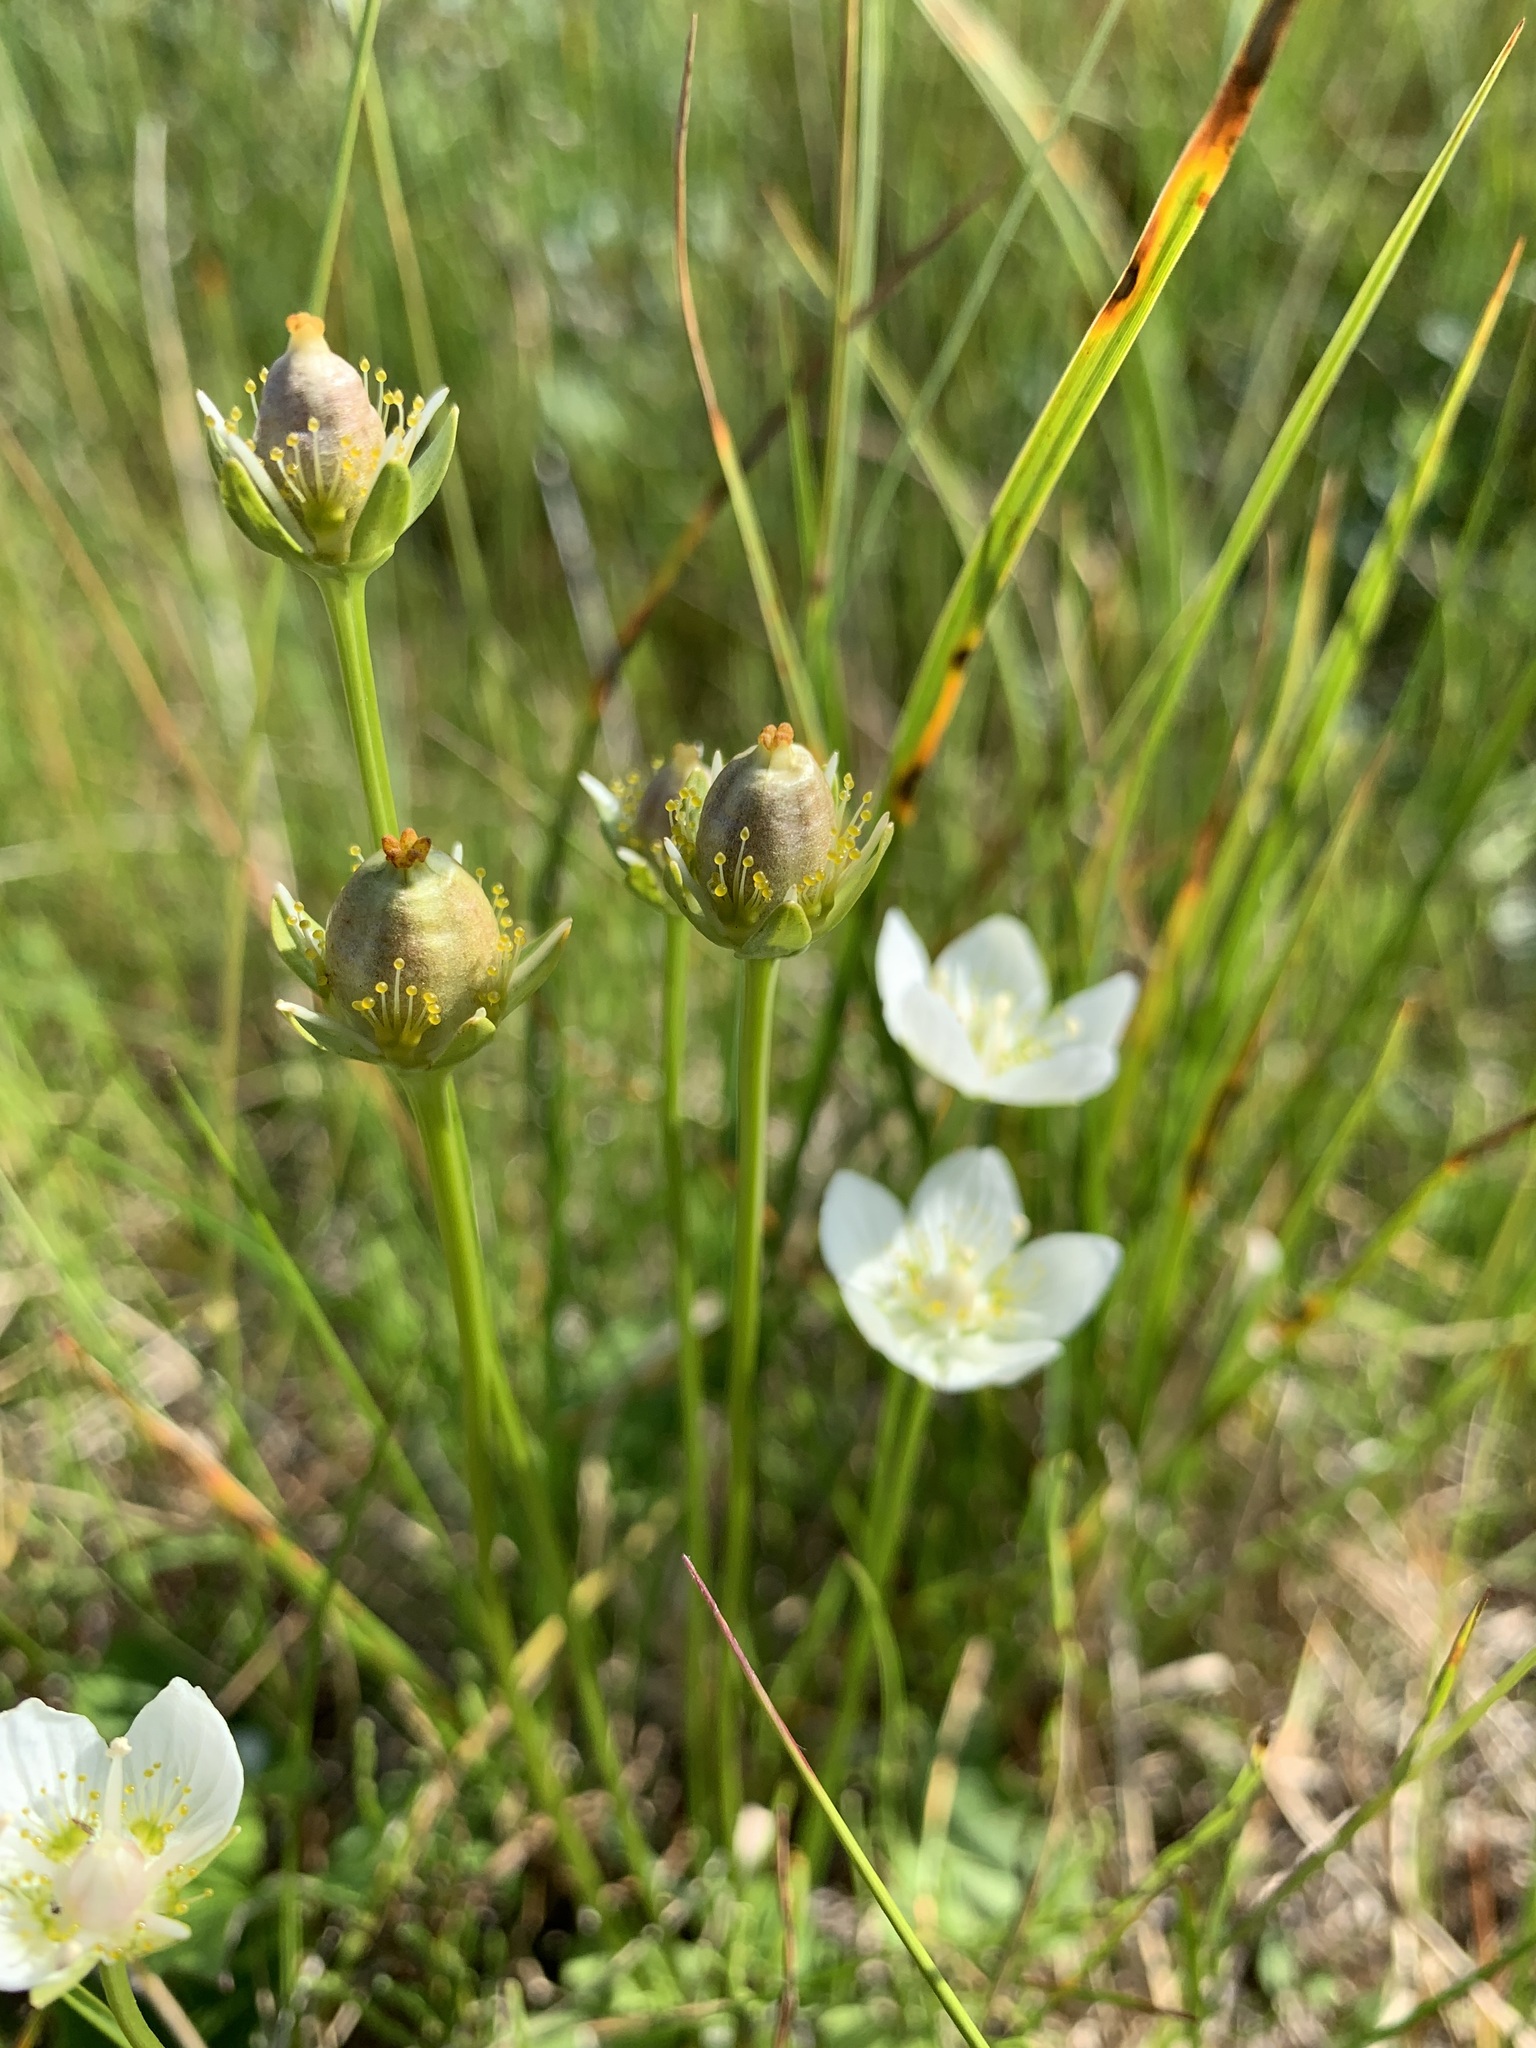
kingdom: Plantae
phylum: Tracheophyta
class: Magnoliopsida
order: Celastrales
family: Parnassiaceae
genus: Parnassia
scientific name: Parnassia palustris
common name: Grass-of-parnassus
